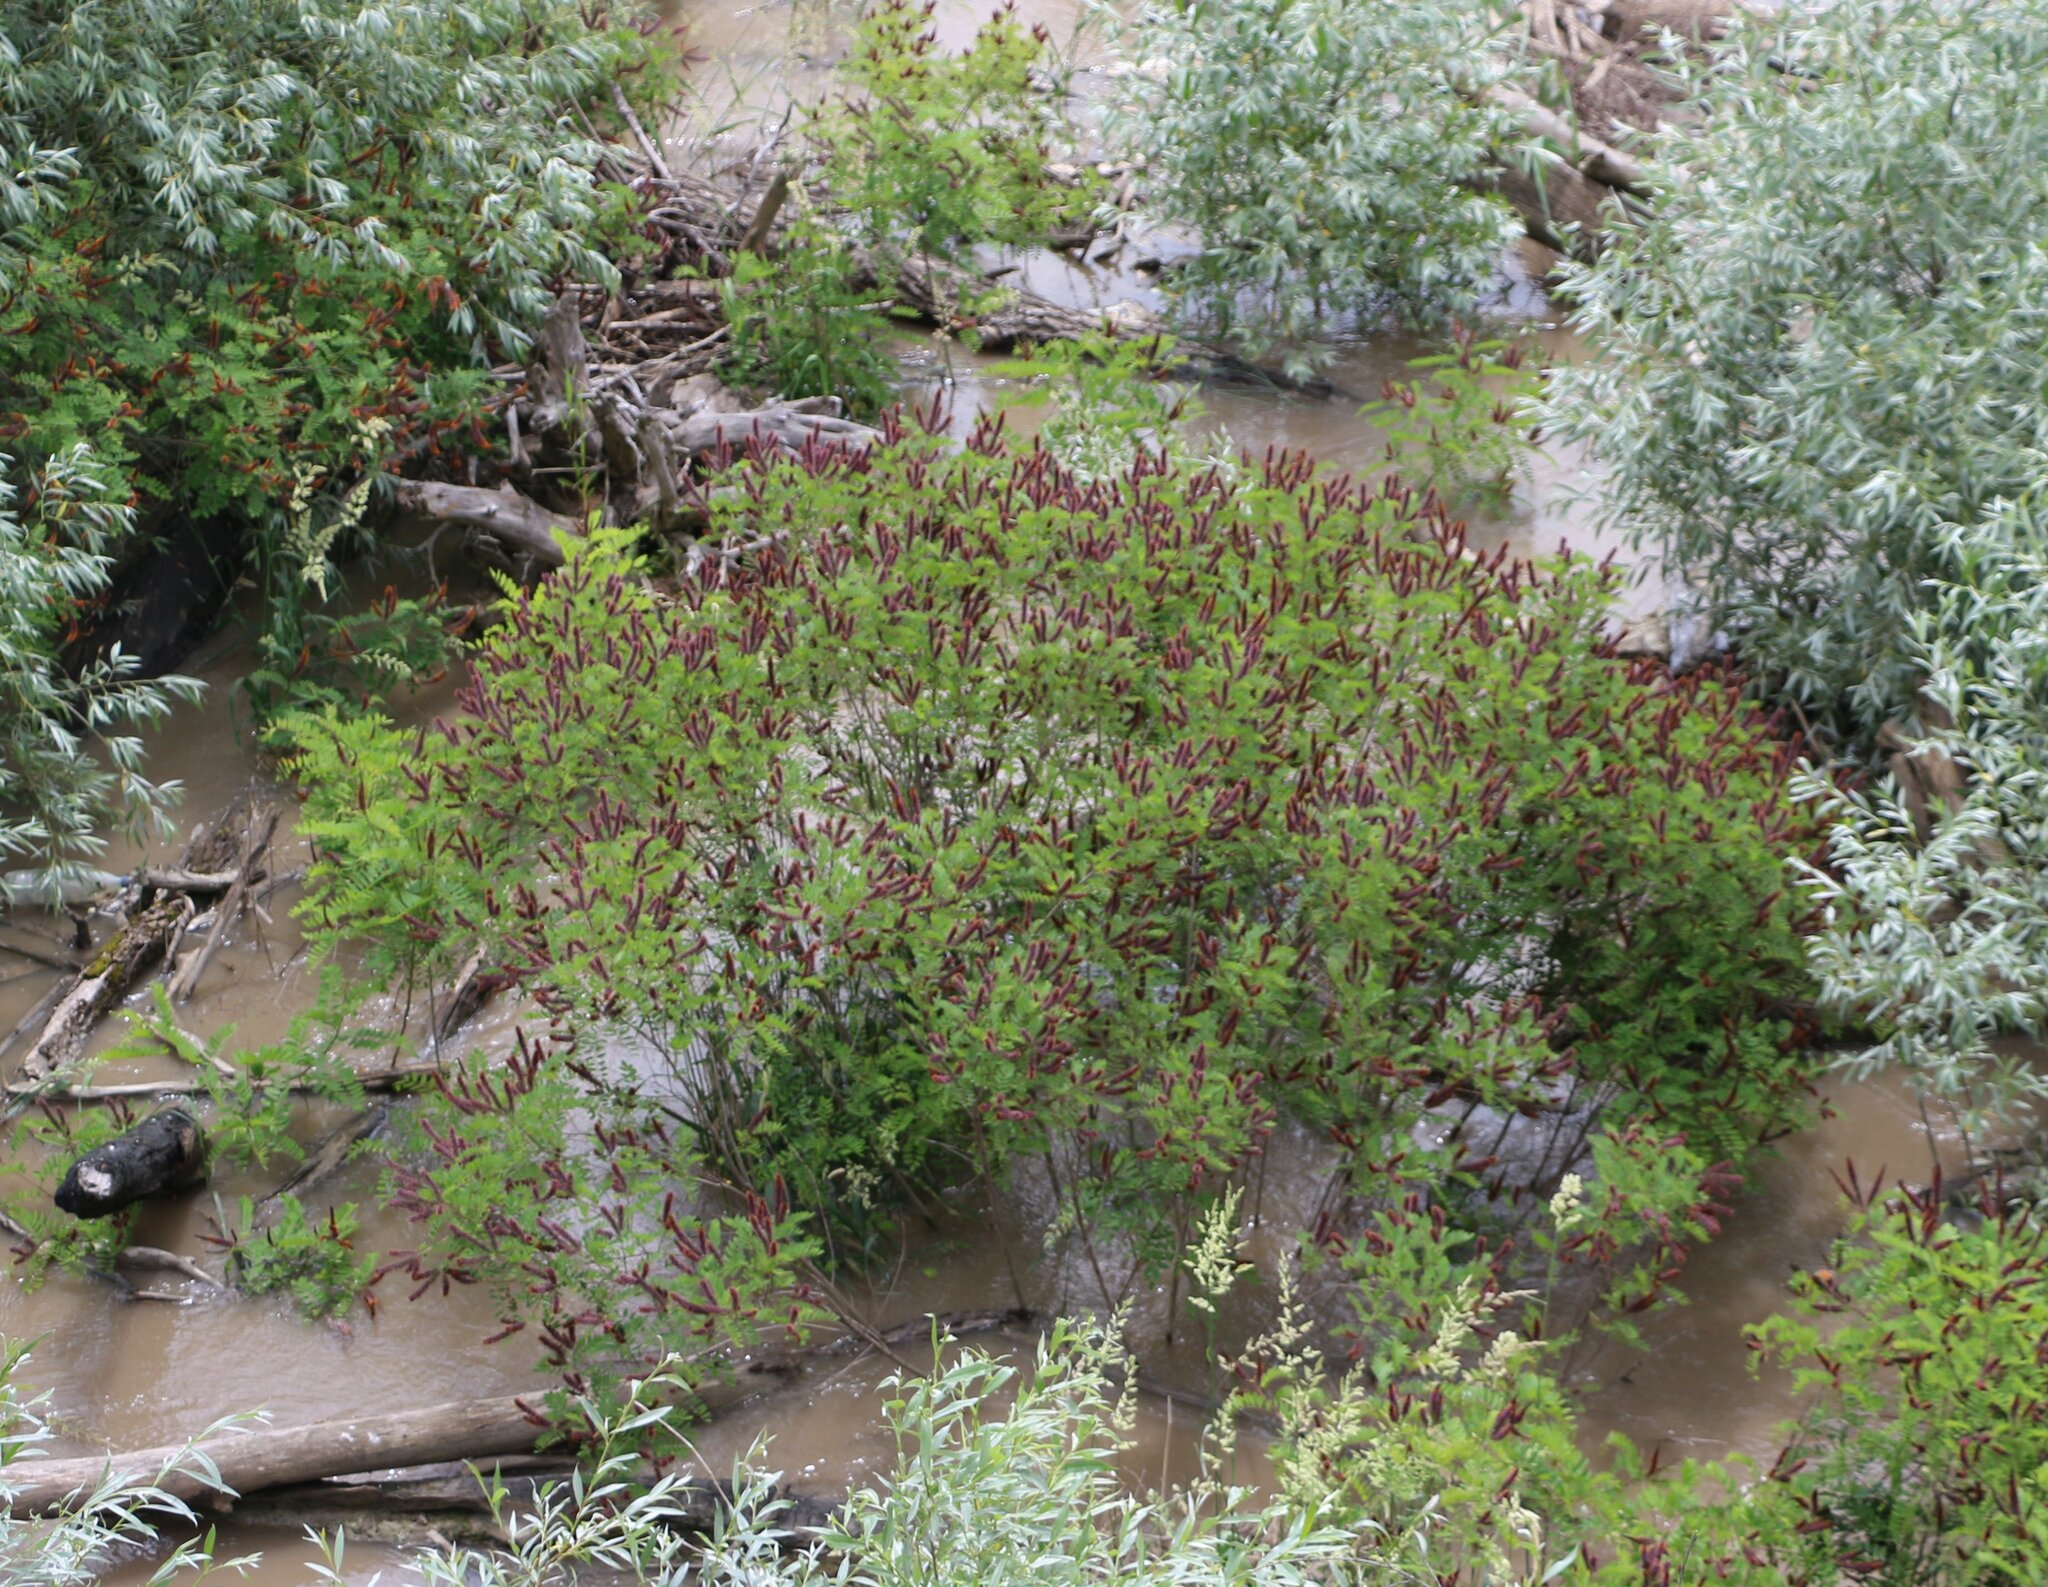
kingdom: Plantae
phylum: Tracheophyta
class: Magnoliopsida
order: Fabales
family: Fabaceae
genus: Amorpha
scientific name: Amorpha fruticosa
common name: False indigo
